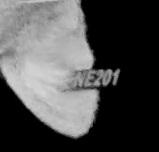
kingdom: Animalia
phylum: Chordata
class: Mammalia
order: Carnivora
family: Felidae
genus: Puma
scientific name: Puma concolor
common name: Puma
